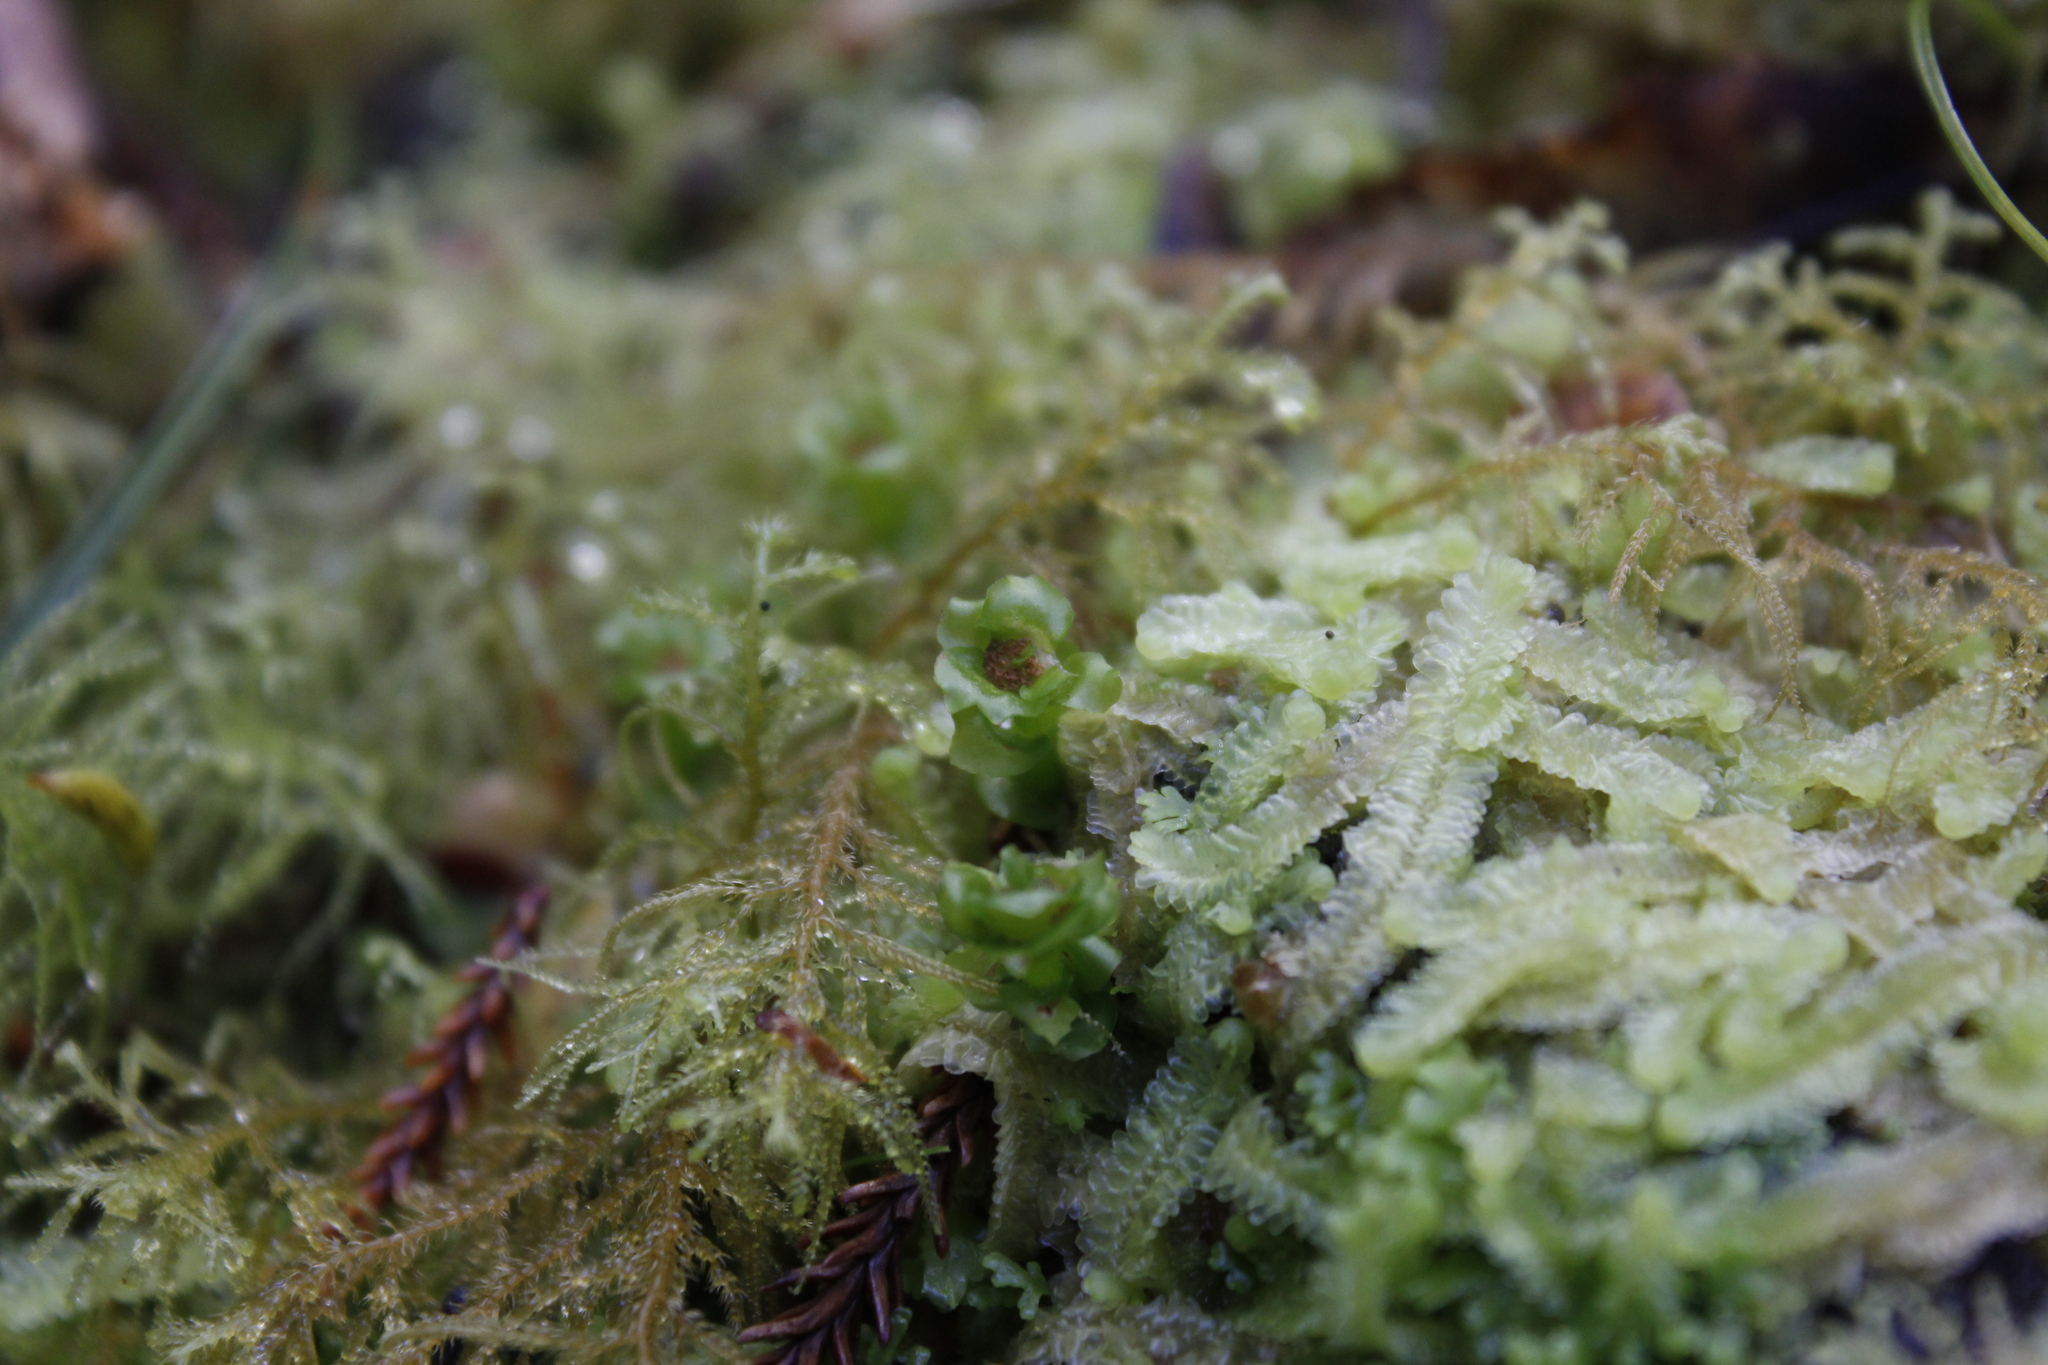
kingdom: Plantae
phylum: Marchantiophyta
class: Haplomitriopsida
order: Calobryales
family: Haplomitriaceae
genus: Haplomitrium
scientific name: Haplomitrium gibbsiae
